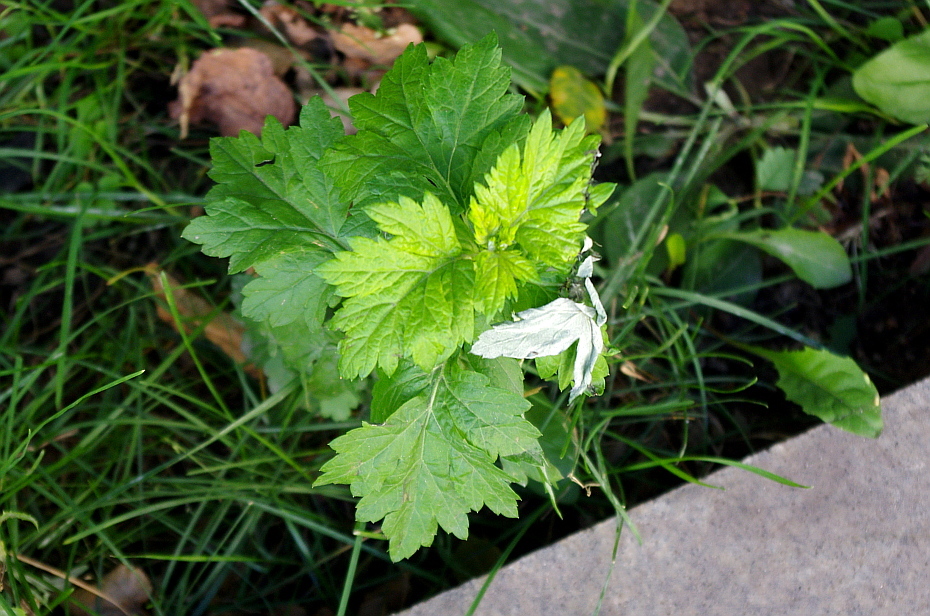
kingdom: Plantae
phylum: Tracheophyta
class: Magnoliopsida
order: Asterales
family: Asteraceae
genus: Artemisia
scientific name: Artemisia vulgaris
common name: Mugwort
